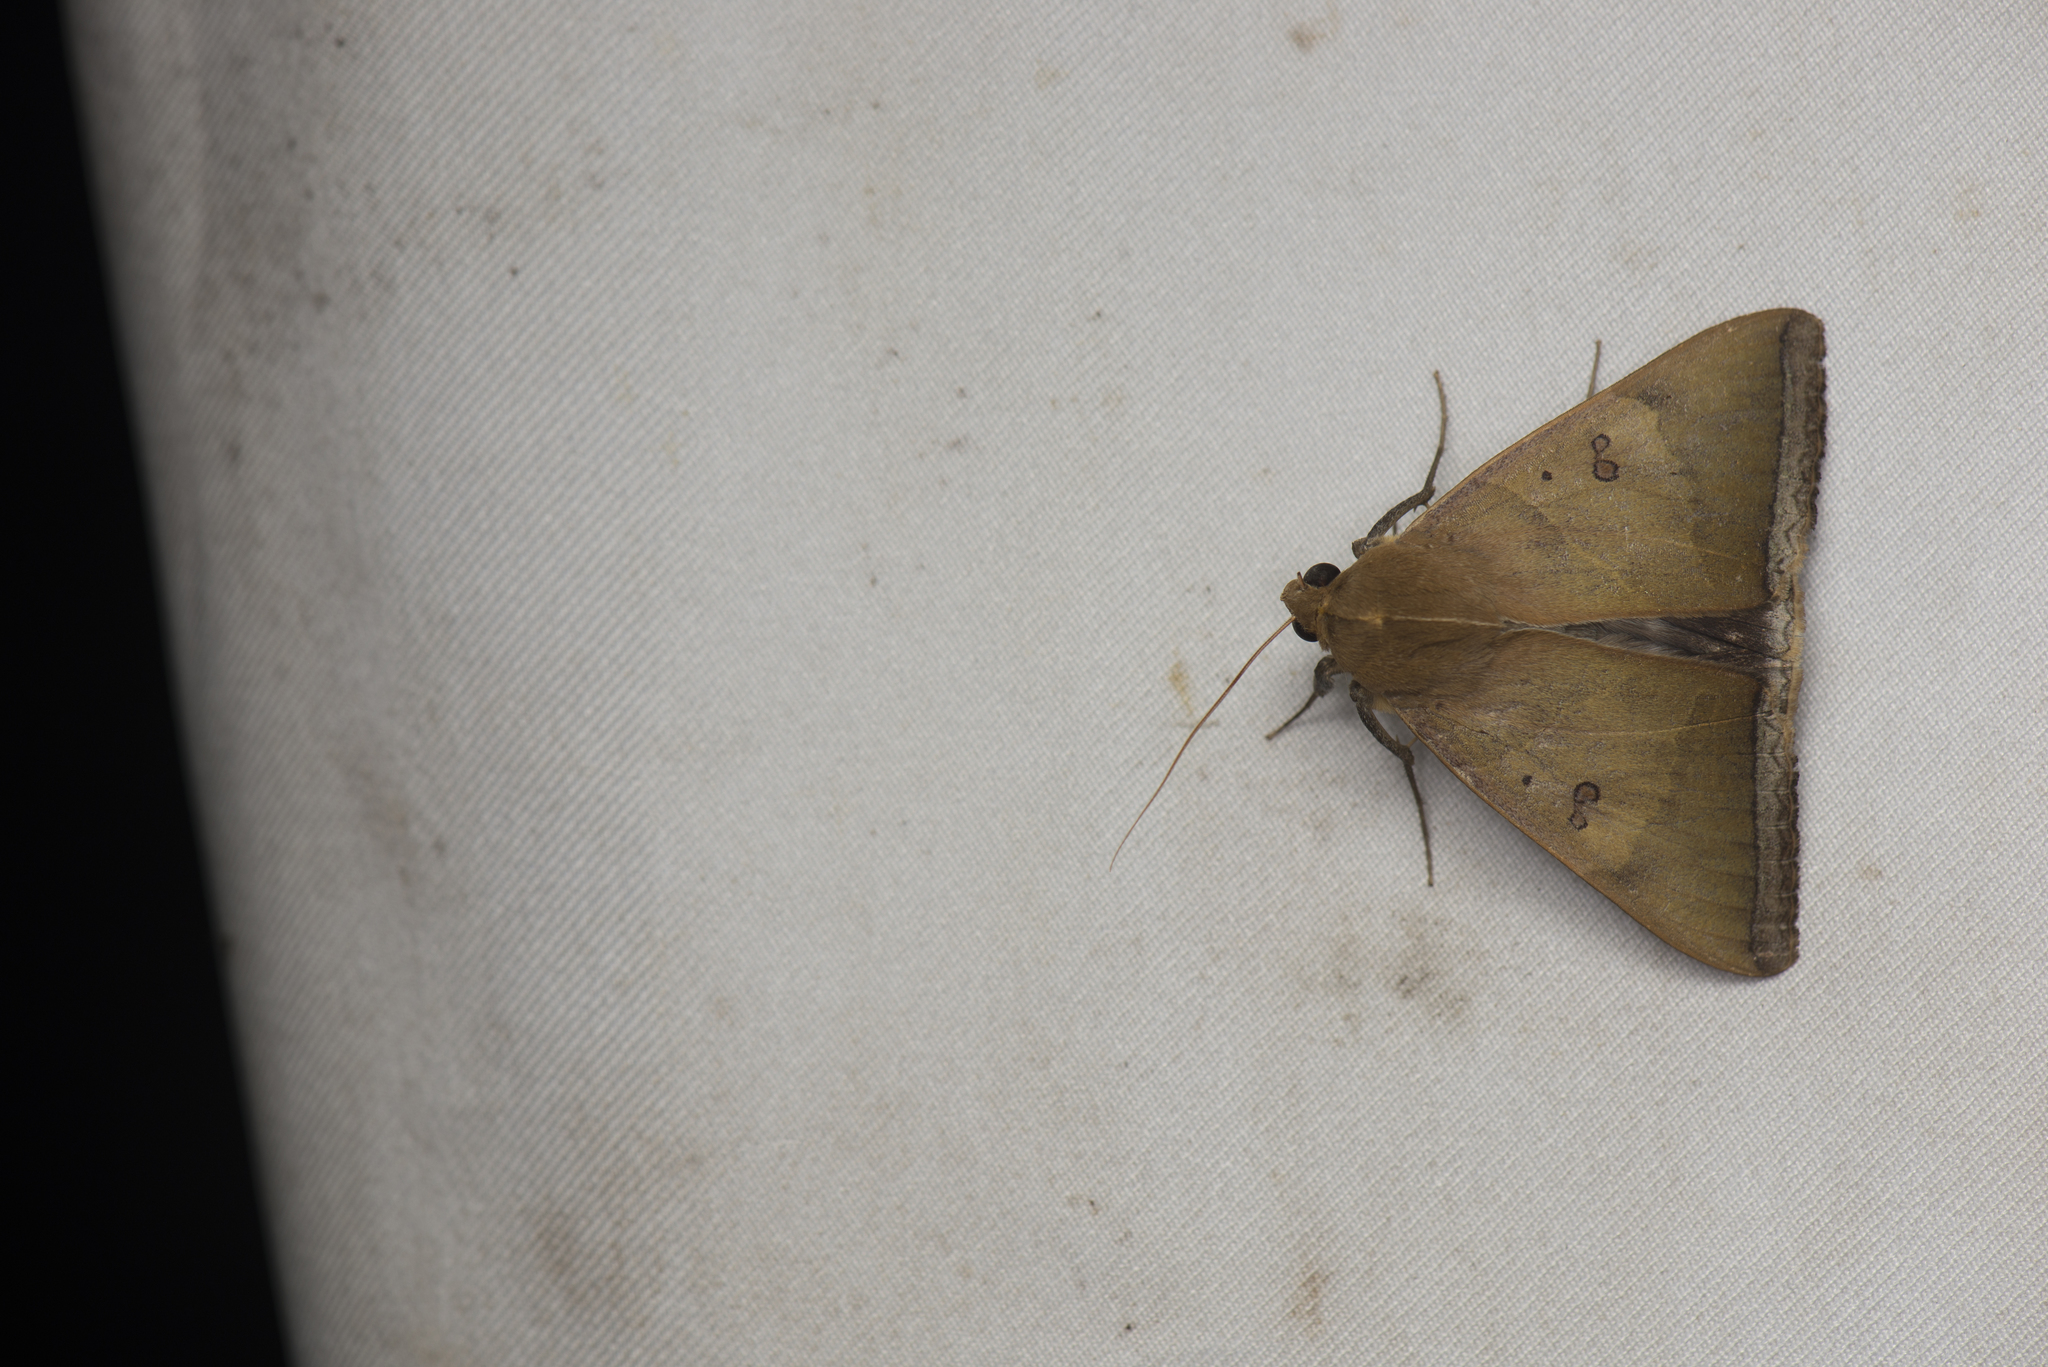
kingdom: Animalia
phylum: Arthropoda
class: Insecta
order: Lepidoptera
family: Erebidae
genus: Artena
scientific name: Artena dotata
